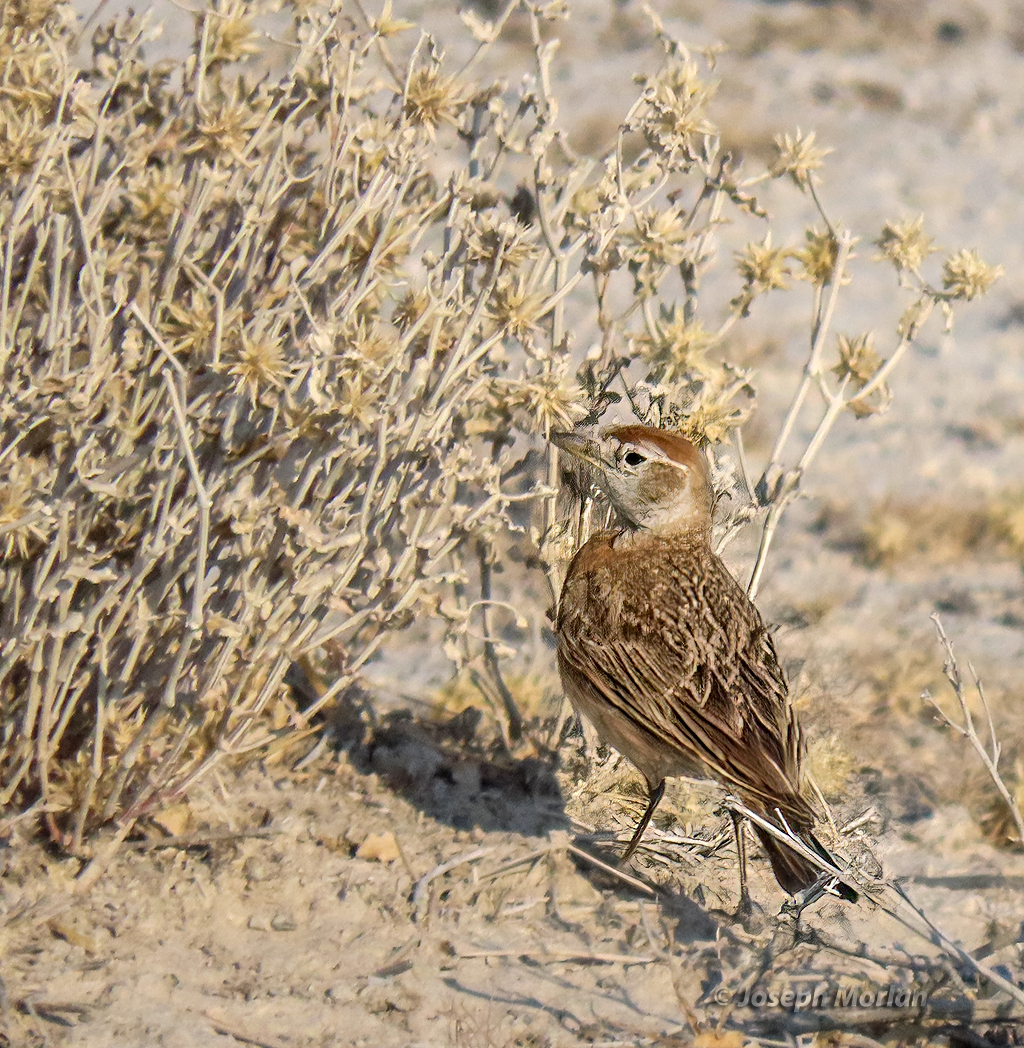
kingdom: Animalia
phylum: Chordata
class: Aves
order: Passeriformes
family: Alaudidae
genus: Calandrella
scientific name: Calandrella cinerea
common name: Red-capped lark
